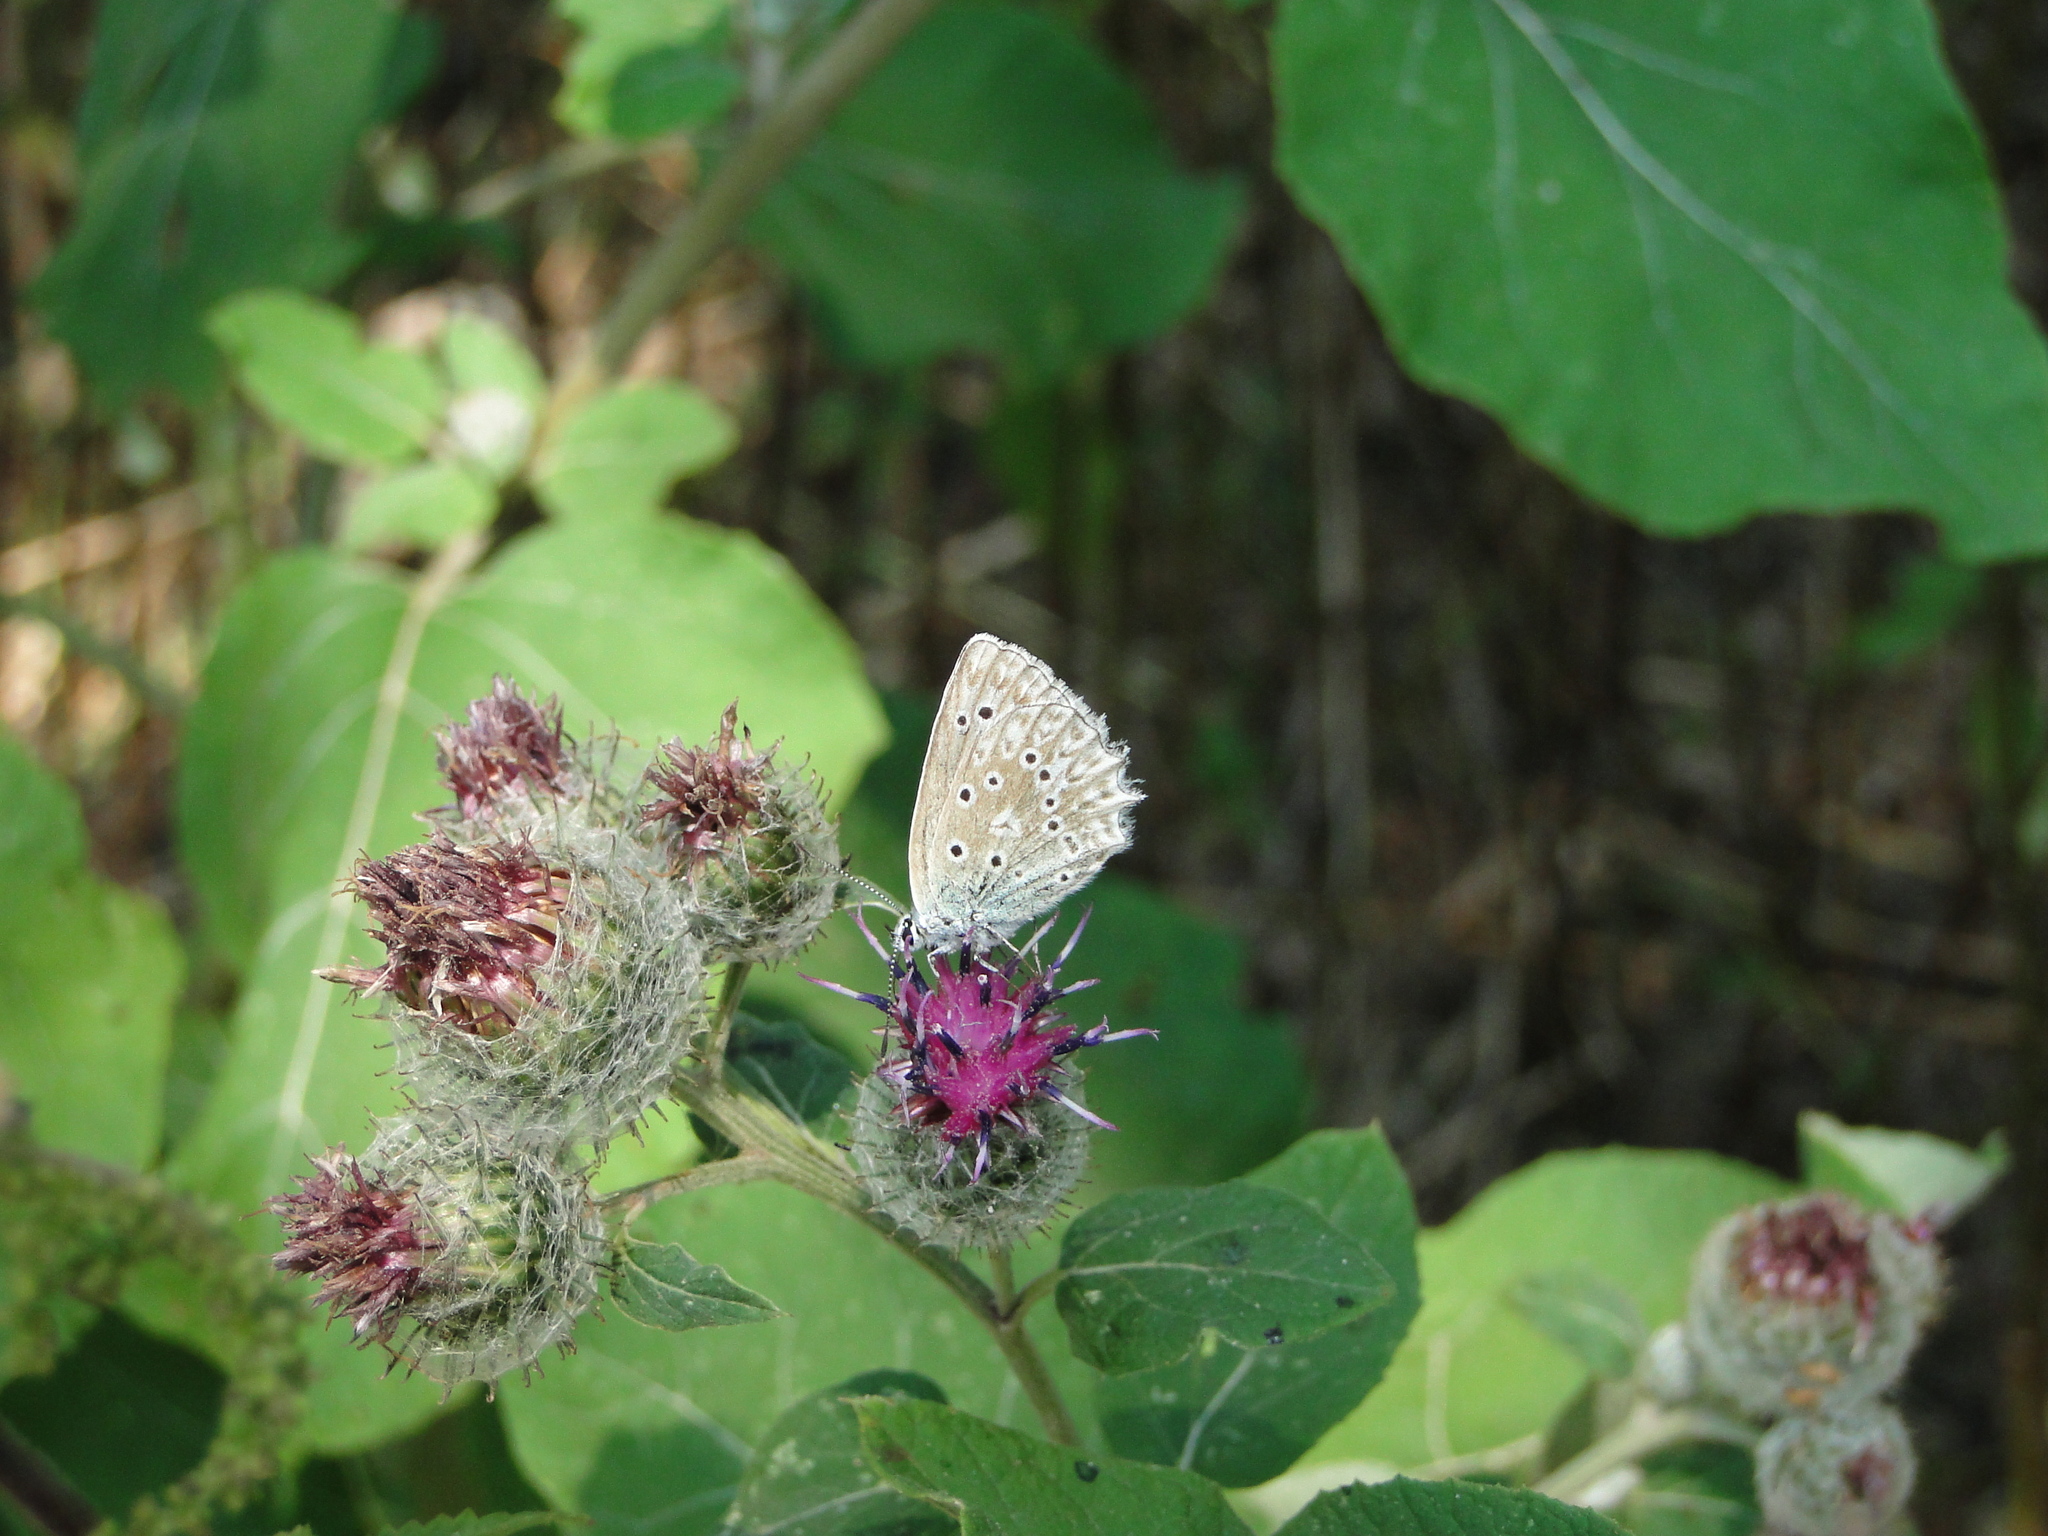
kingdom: Animalia
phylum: Arthropoda
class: Insecta
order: Lepidoptera
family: Lycaenidae
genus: Polyommatus
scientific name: Polyommatus daphnis
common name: Meleager's blue
